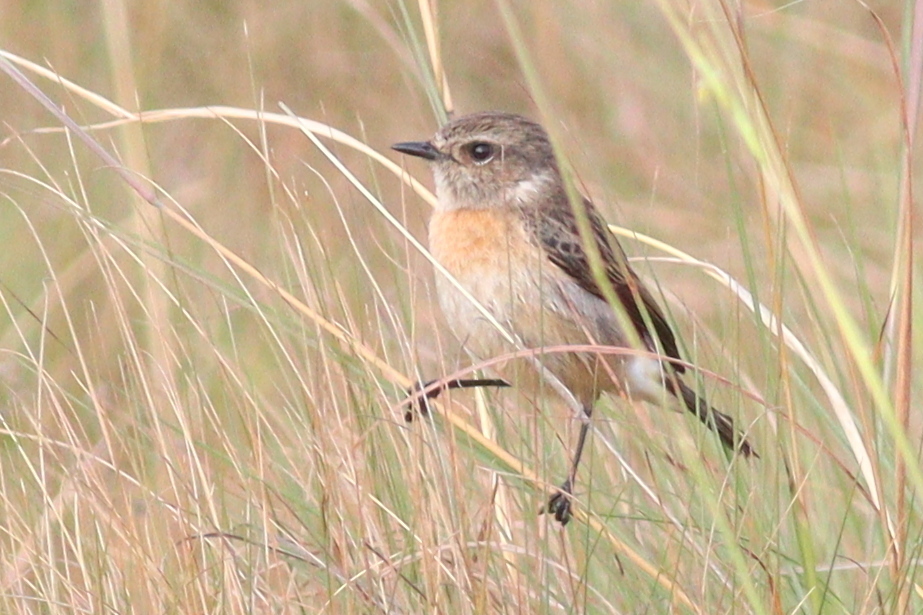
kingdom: Animalia
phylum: Chordata
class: Aves
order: Passeriformes
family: Muscicapidae
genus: Saxicola
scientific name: Saxicola torquatus
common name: African stonechat
